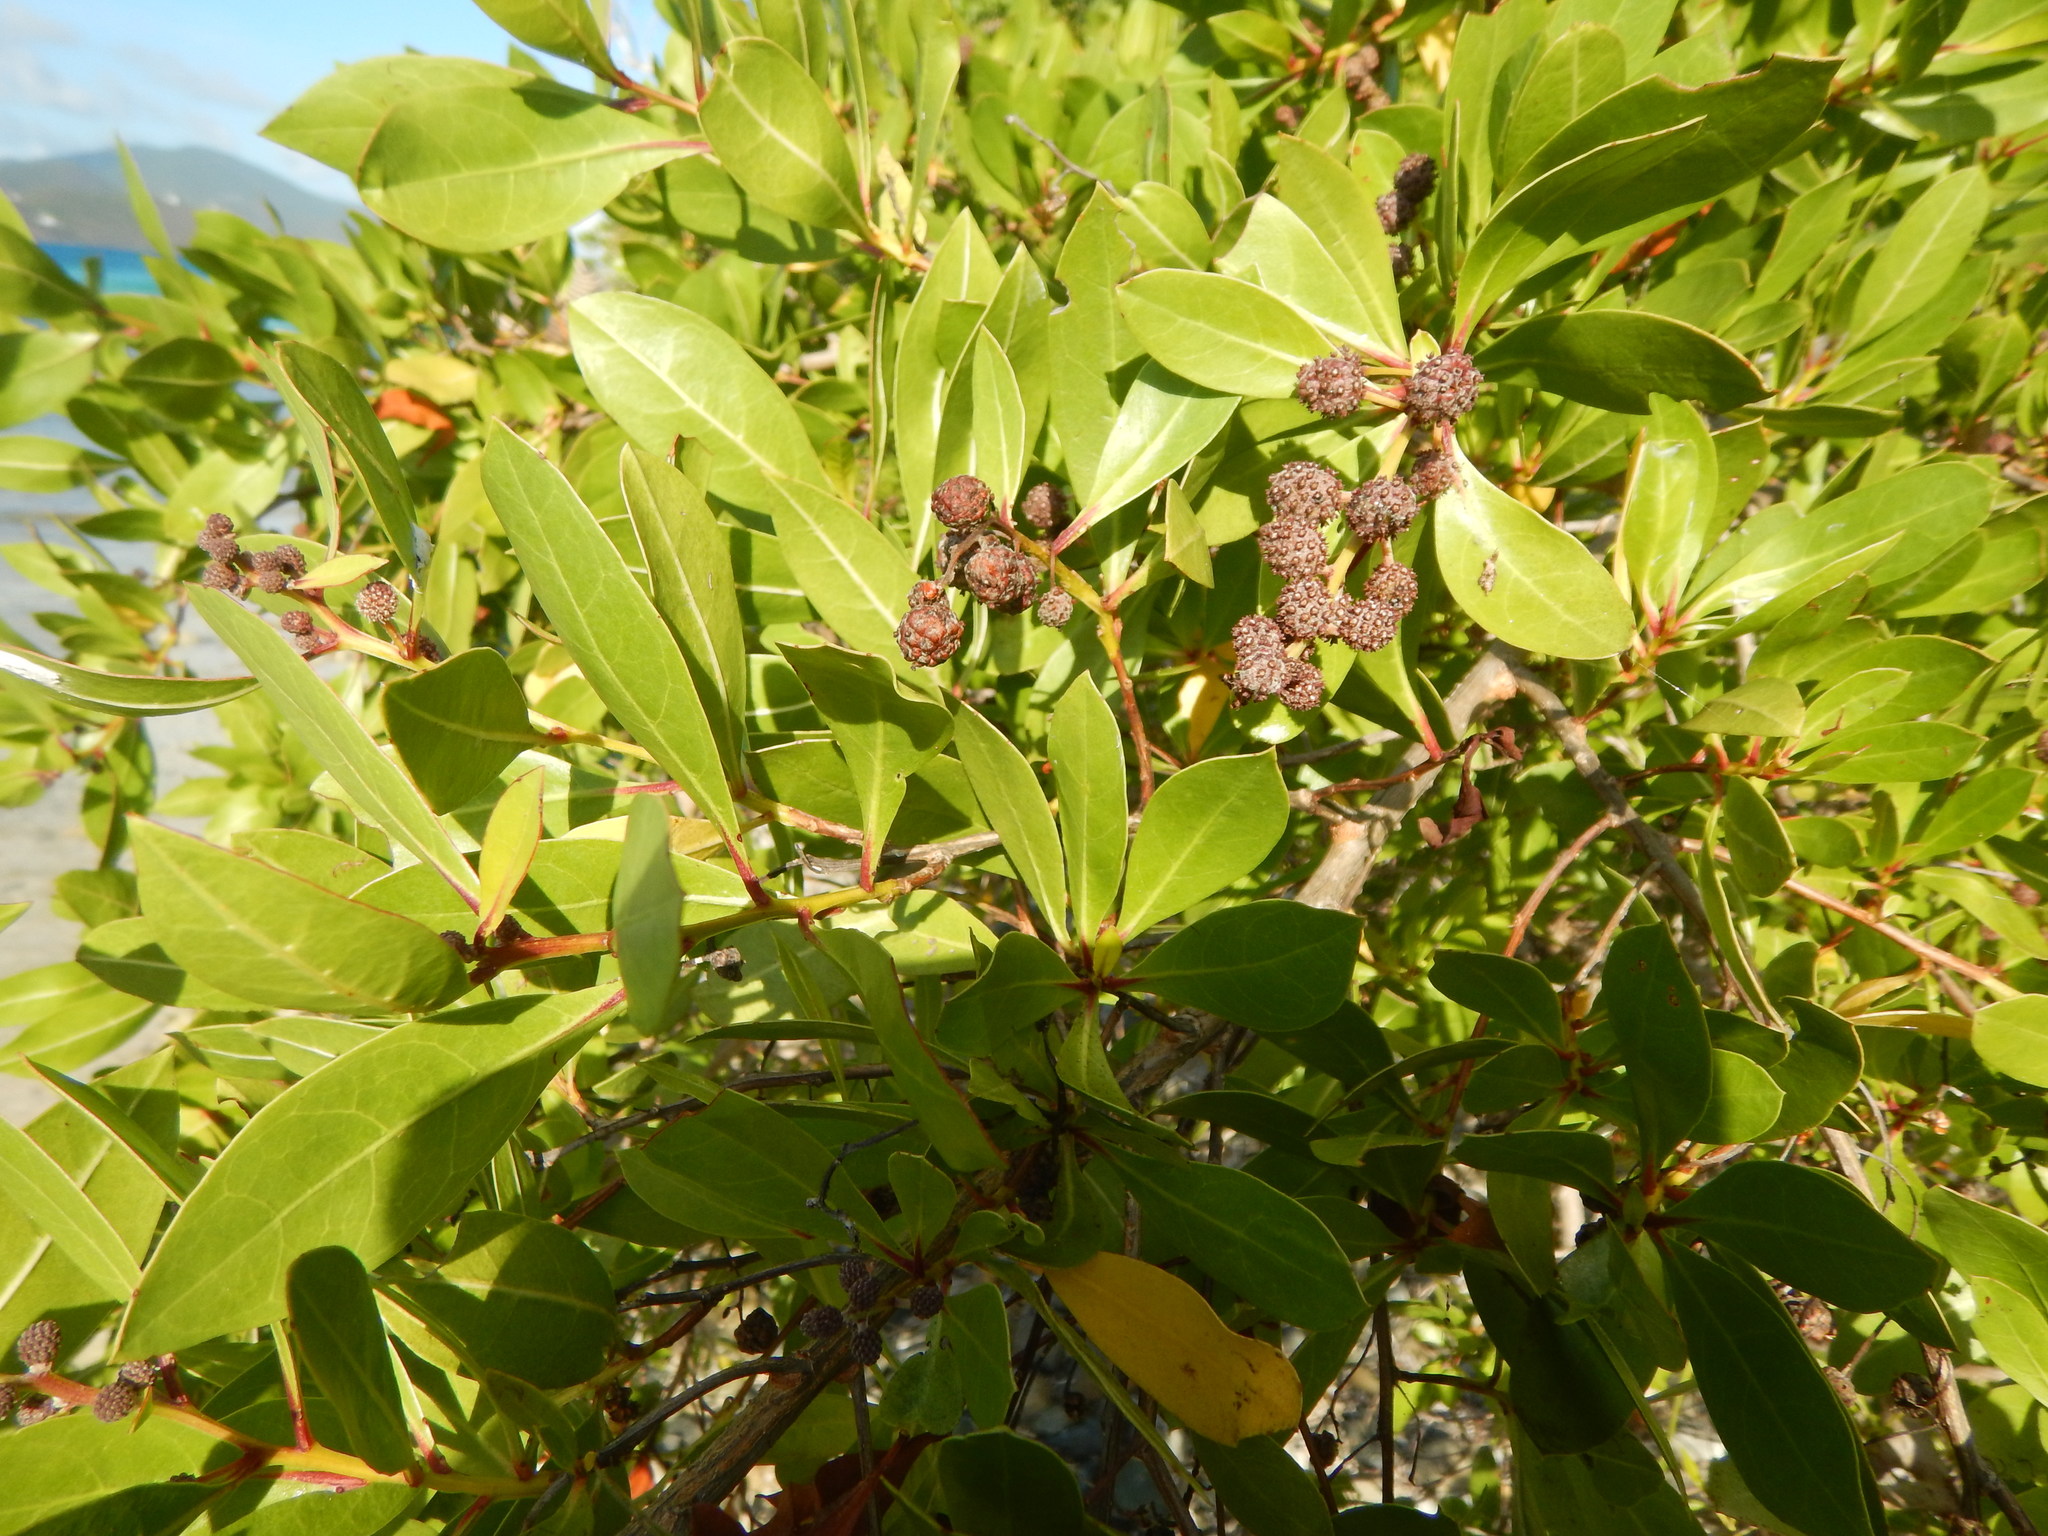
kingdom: Plantae
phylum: Tracheophyta
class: Magnoliopsida
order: Myrtales
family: Combretaceae
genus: Conocarpus
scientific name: Conocarpus erectus
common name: Button mangrove
